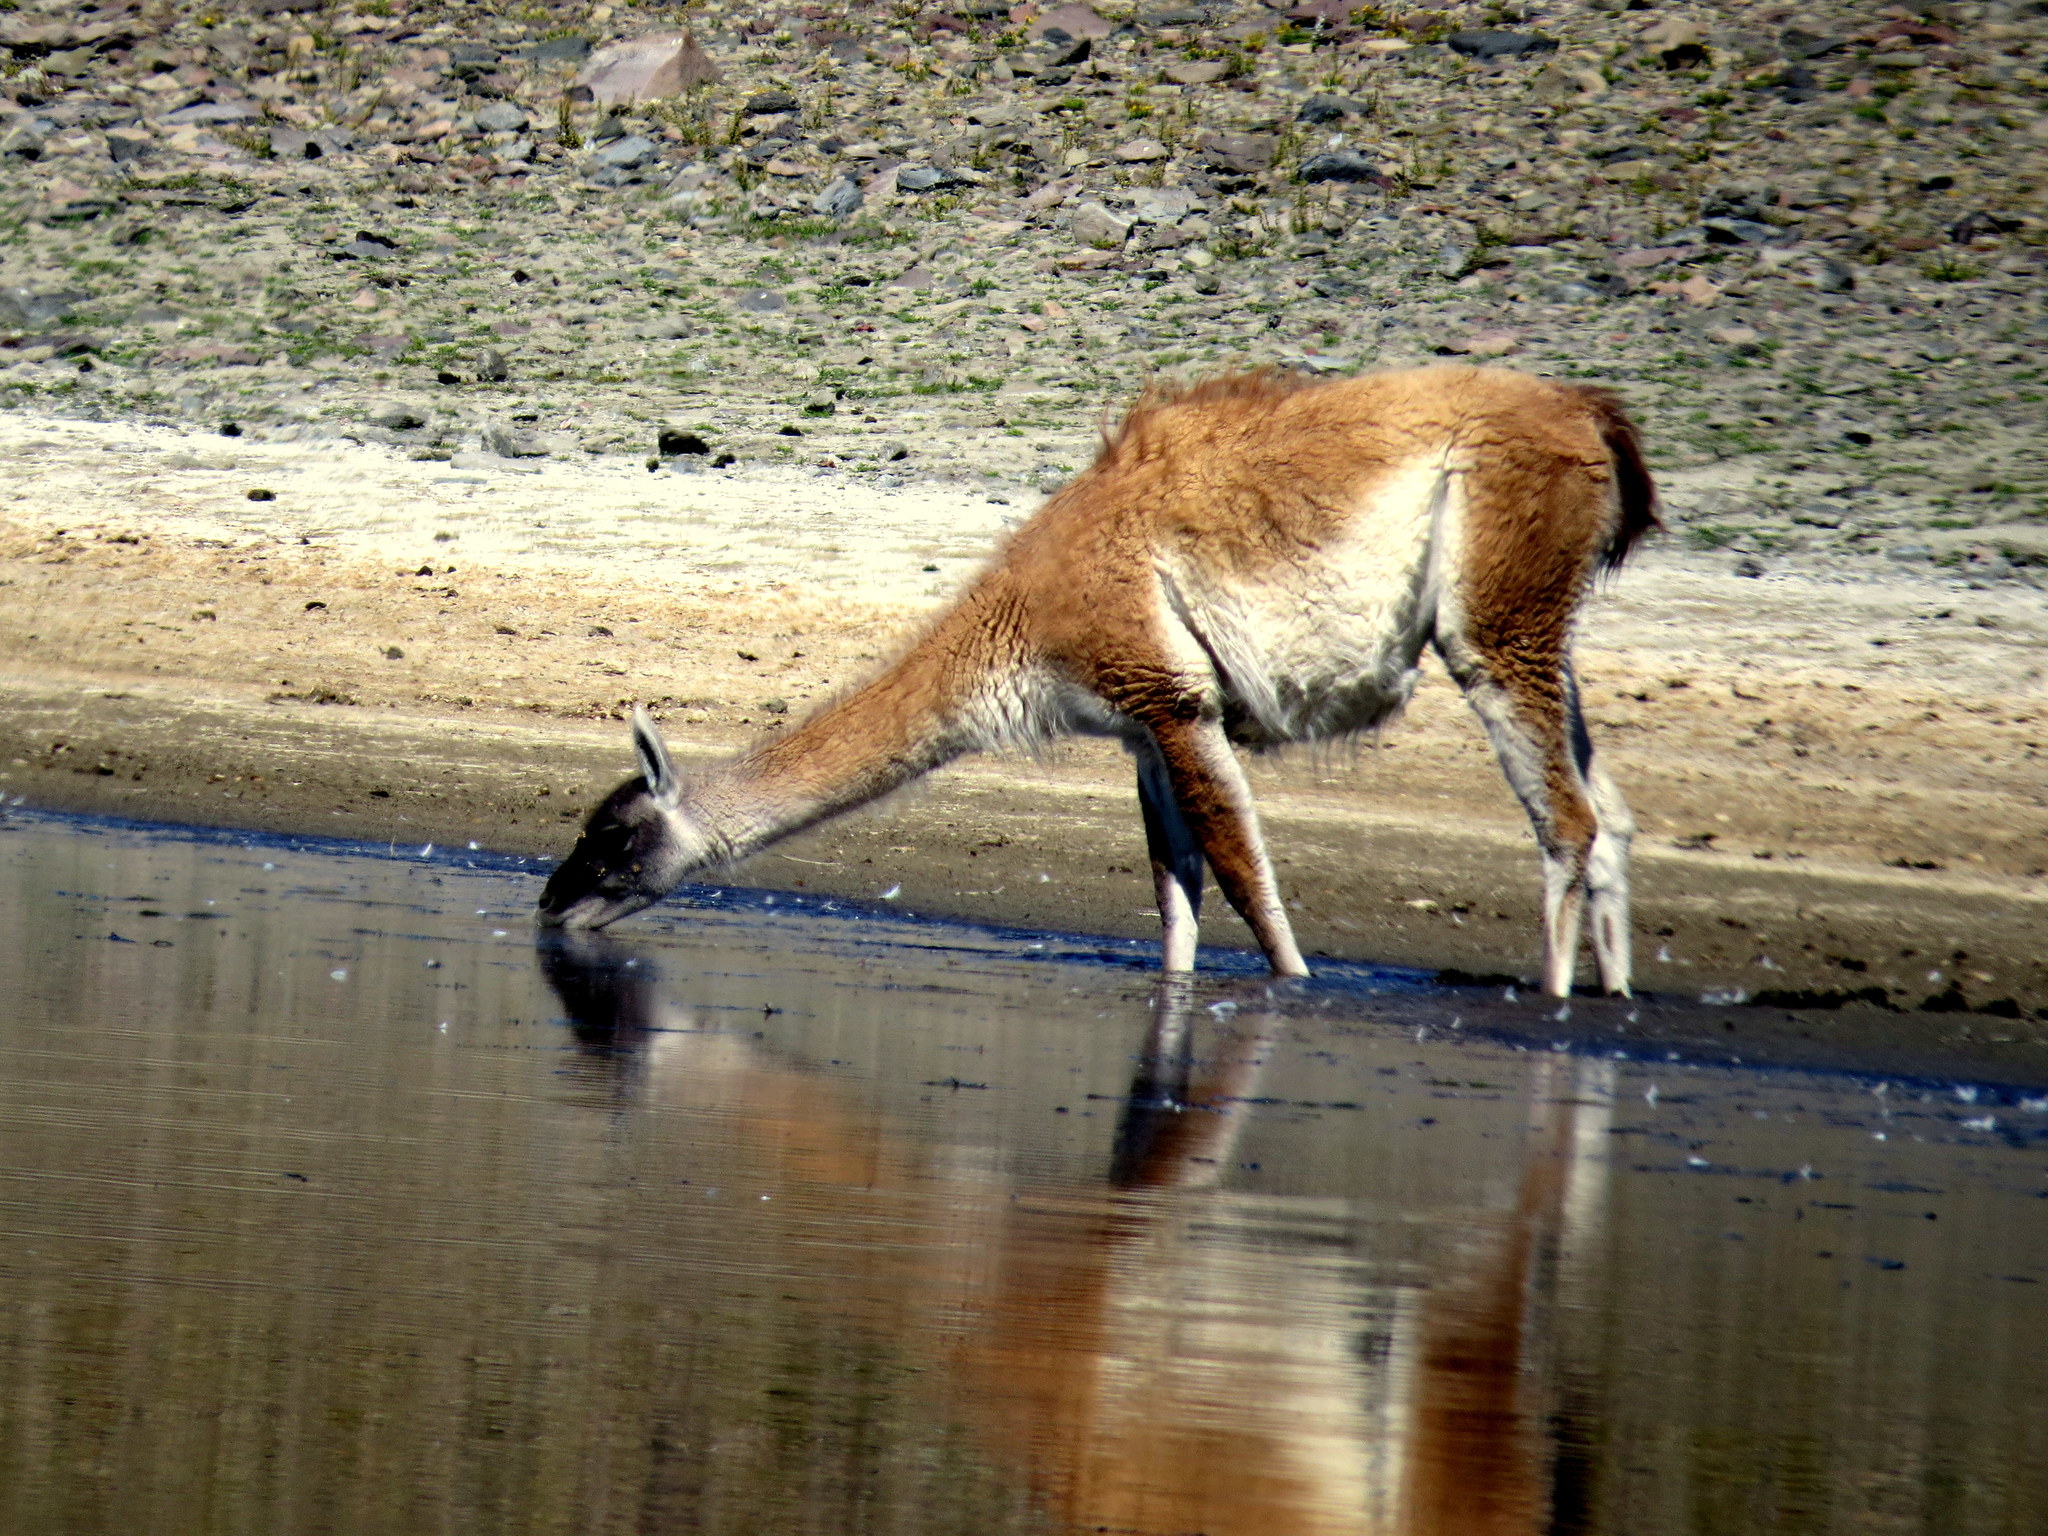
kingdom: Animalia
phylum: Chordata
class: Mammalia
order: Artiodactyla
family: Camelidae
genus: Lama
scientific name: Lama glama
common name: Llama
